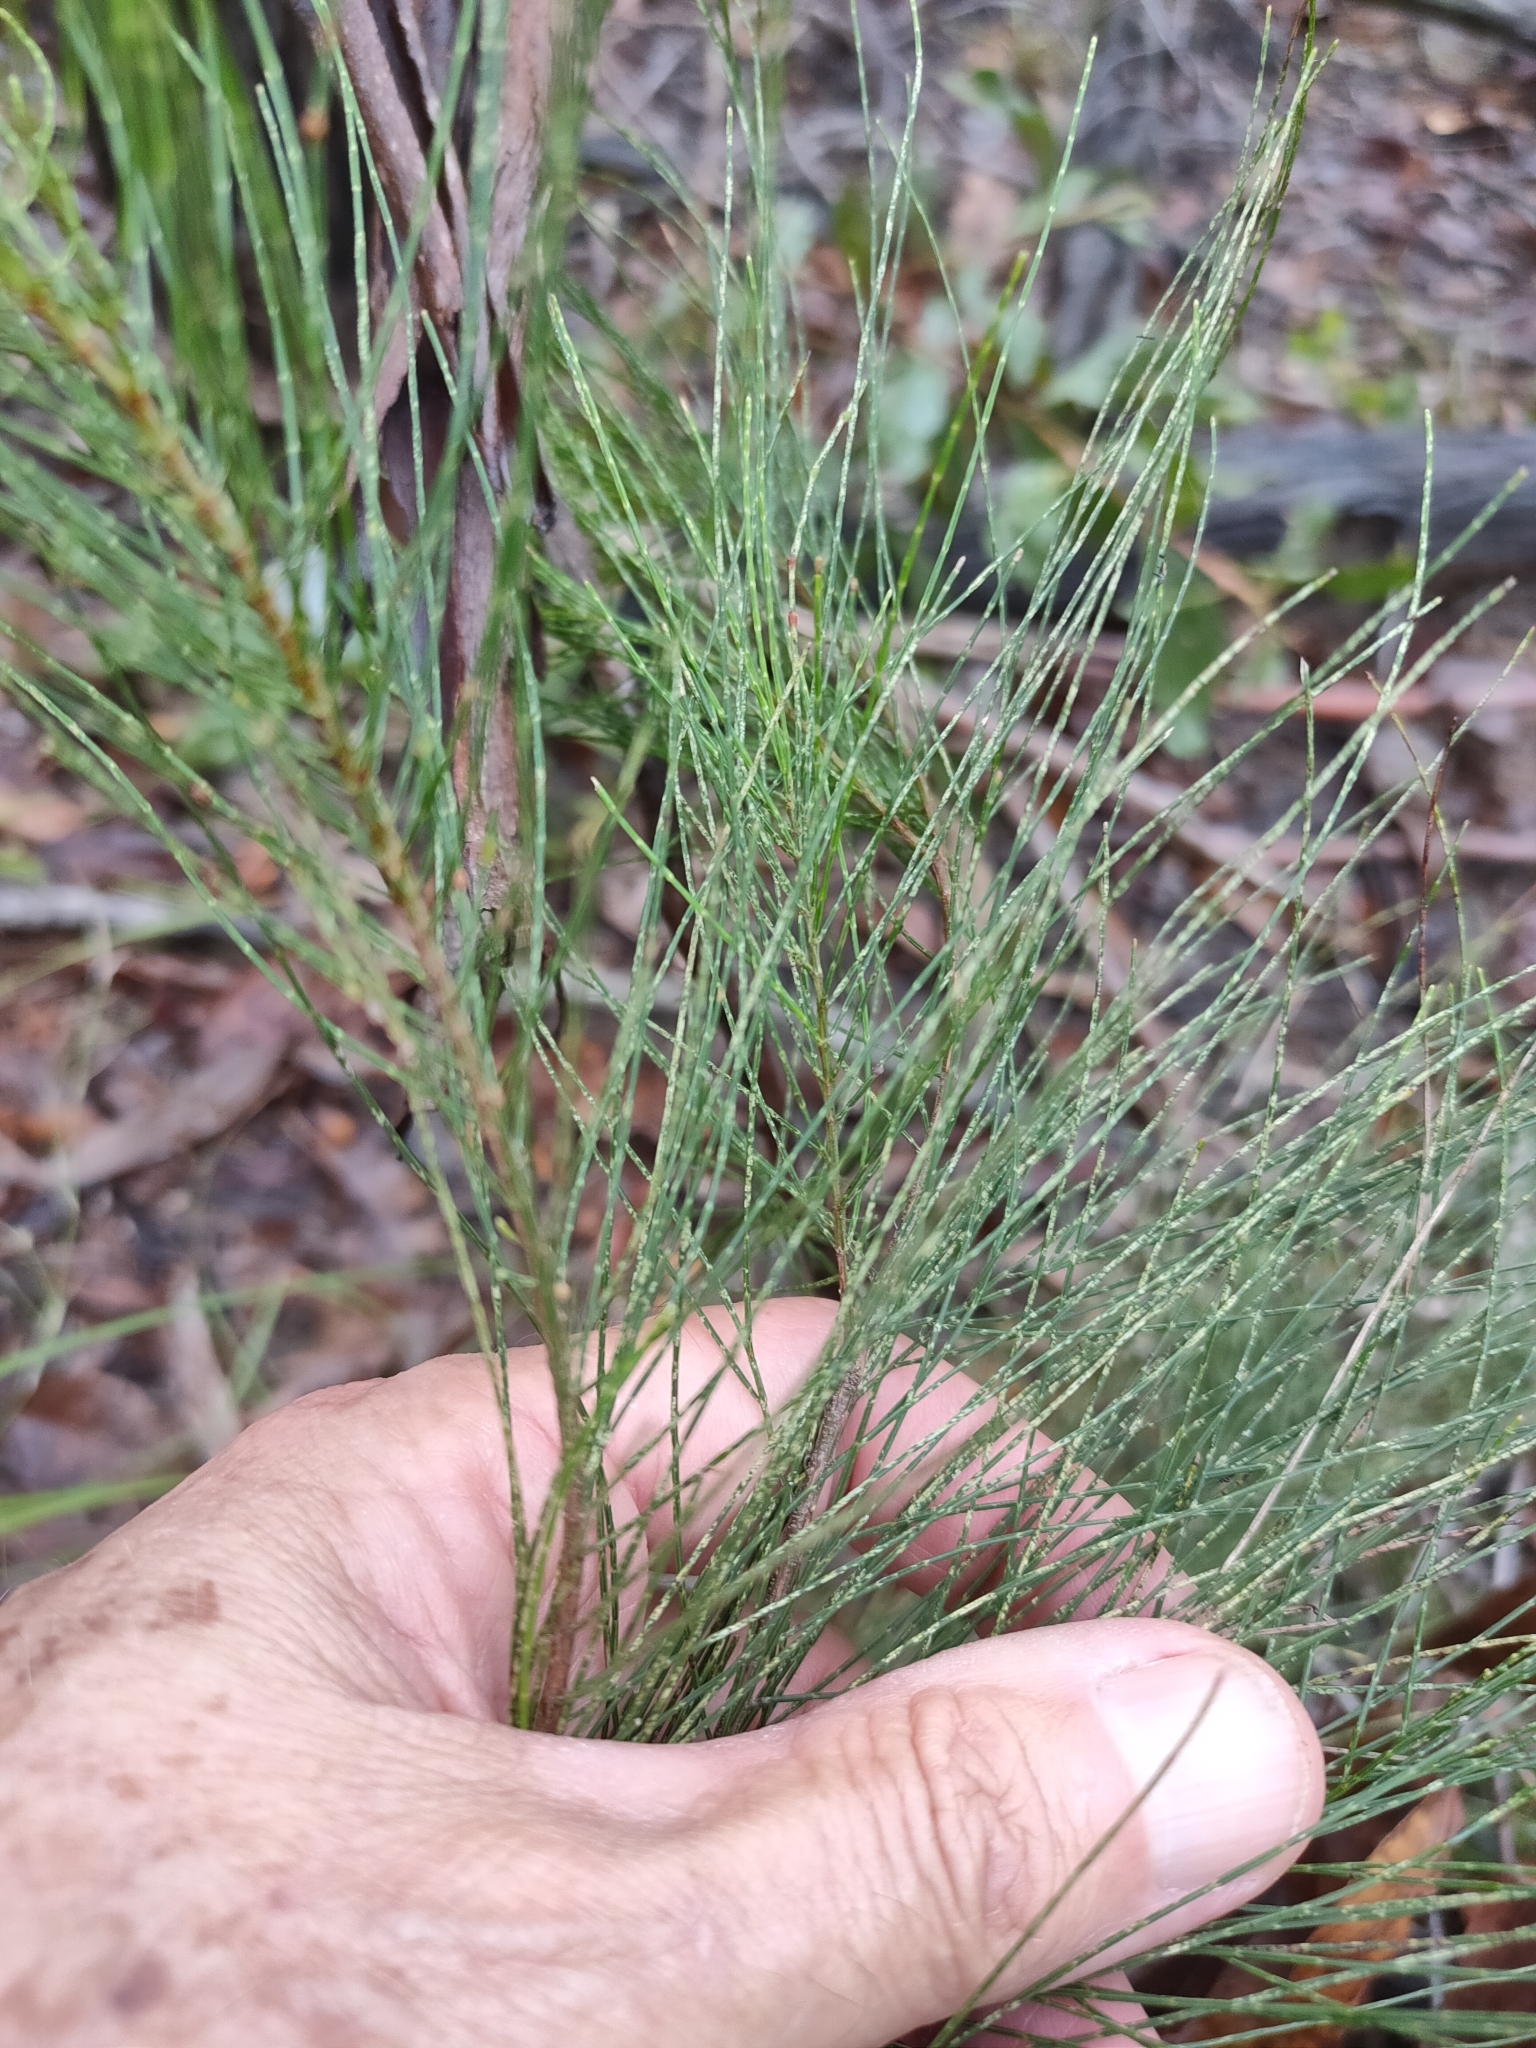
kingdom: Plantae
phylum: Tracheophyta
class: Magnoliopsida
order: Fagales
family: Casuarinaceae
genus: Allocasuarina
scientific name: Allocasuarina torulosa
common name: Forest-oak
